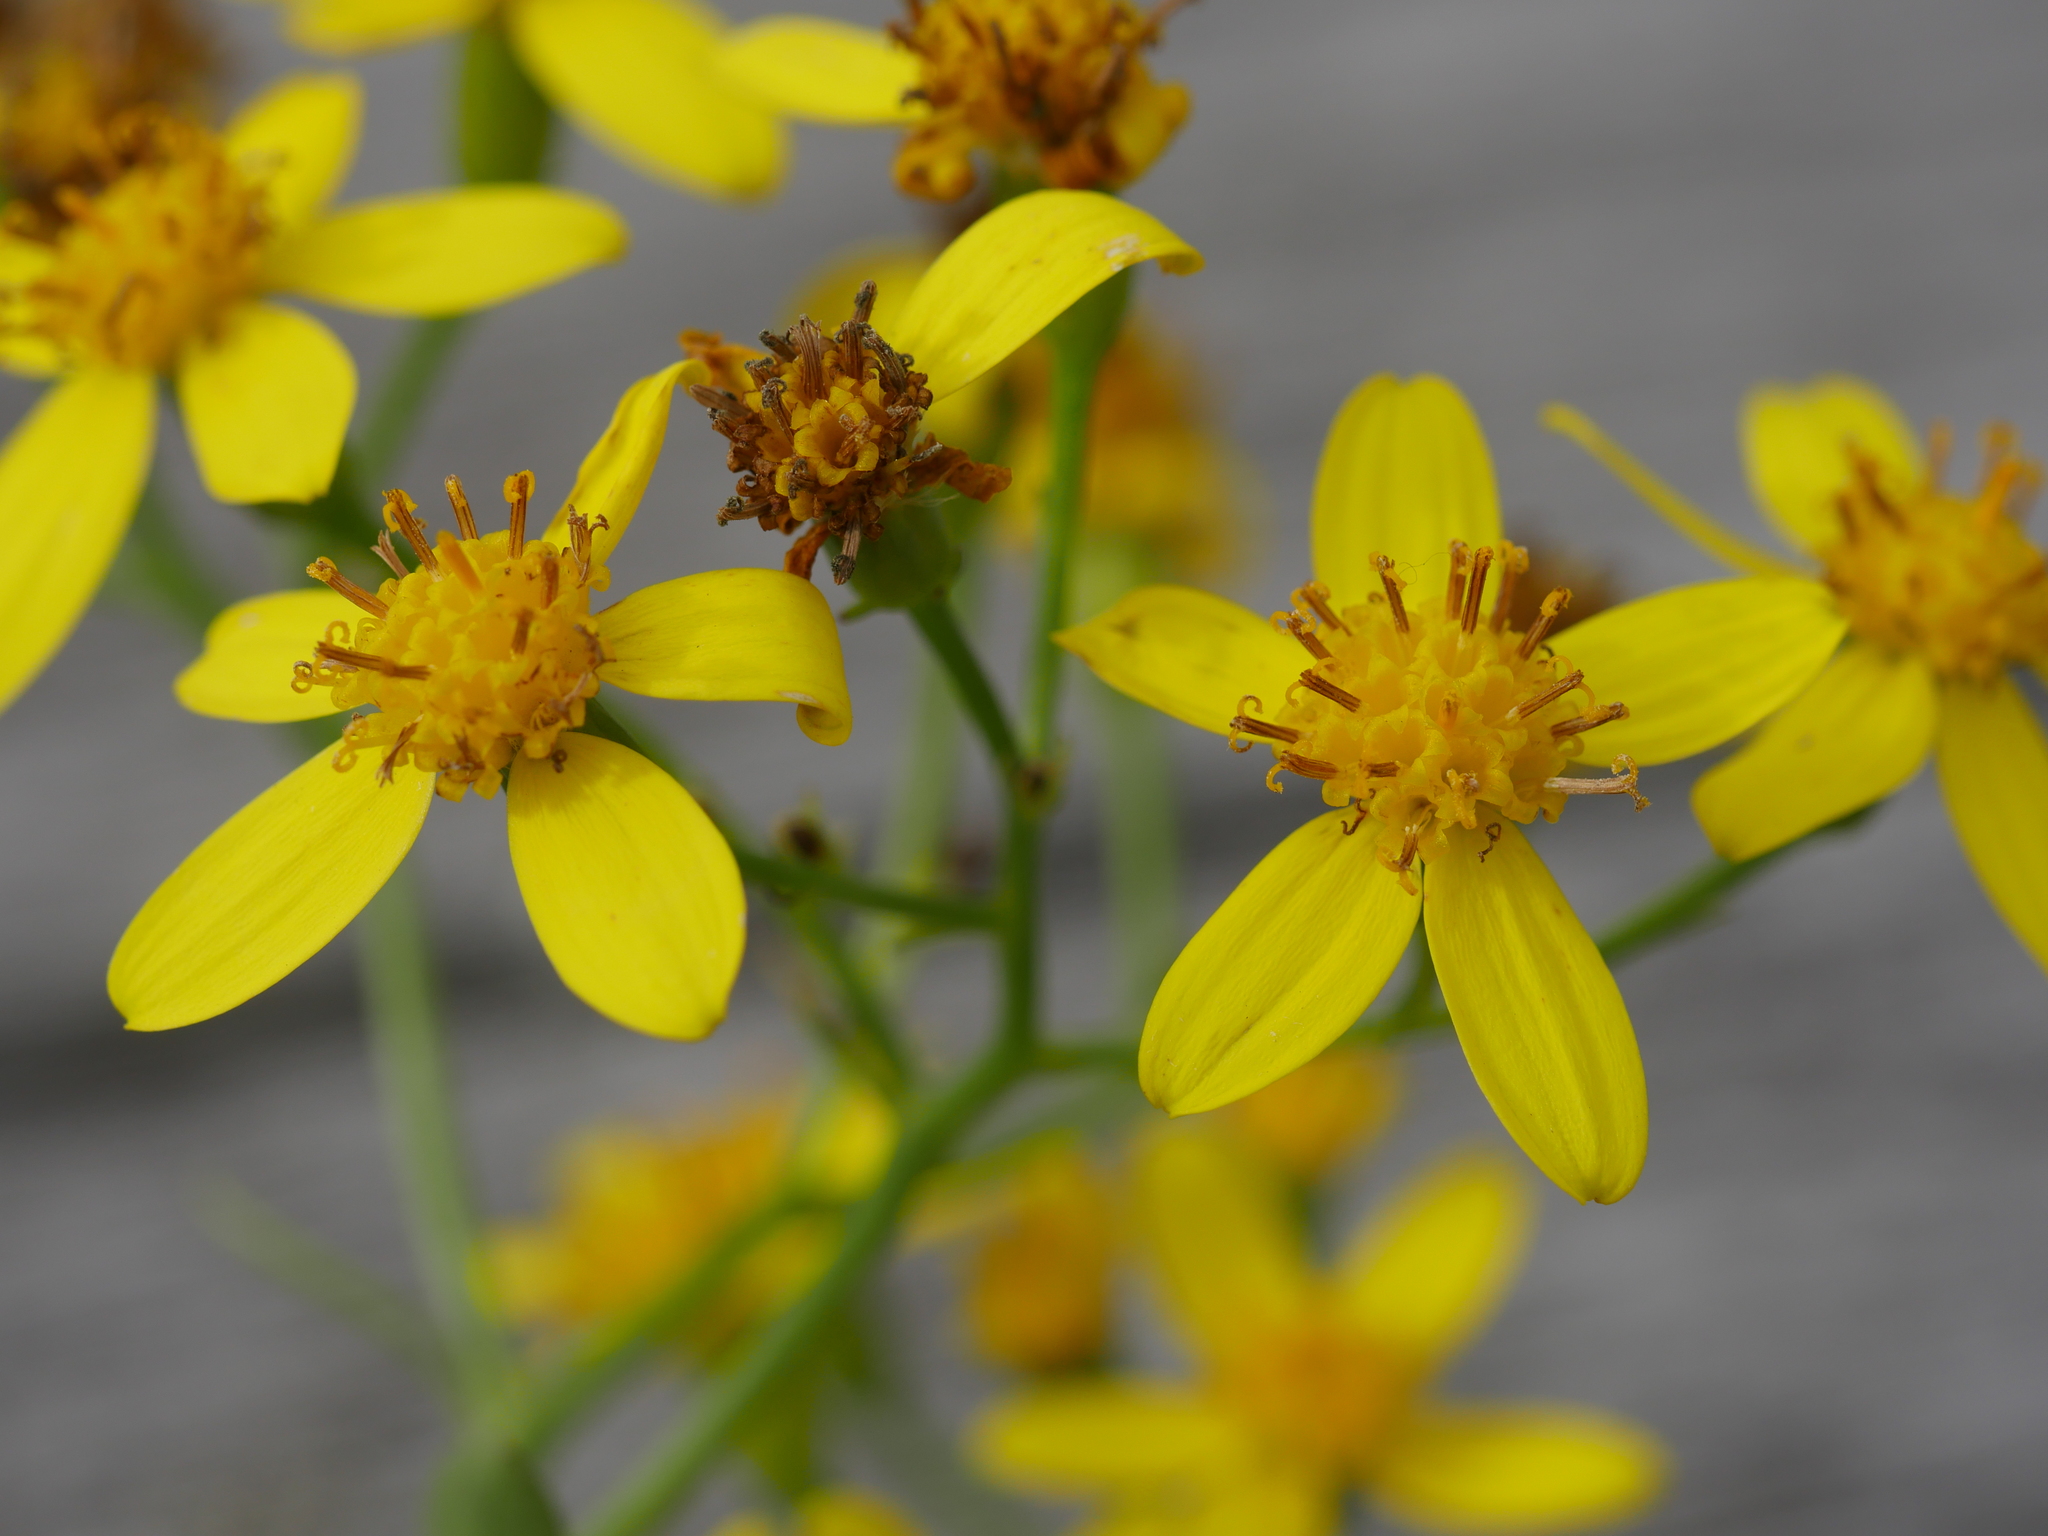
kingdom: Plantae
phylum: Tracheophyta
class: Magnoliopsida
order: Asterales
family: Asteraceae
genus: Senecio
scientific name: Senecio angulatus
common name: Climbing groundsel
